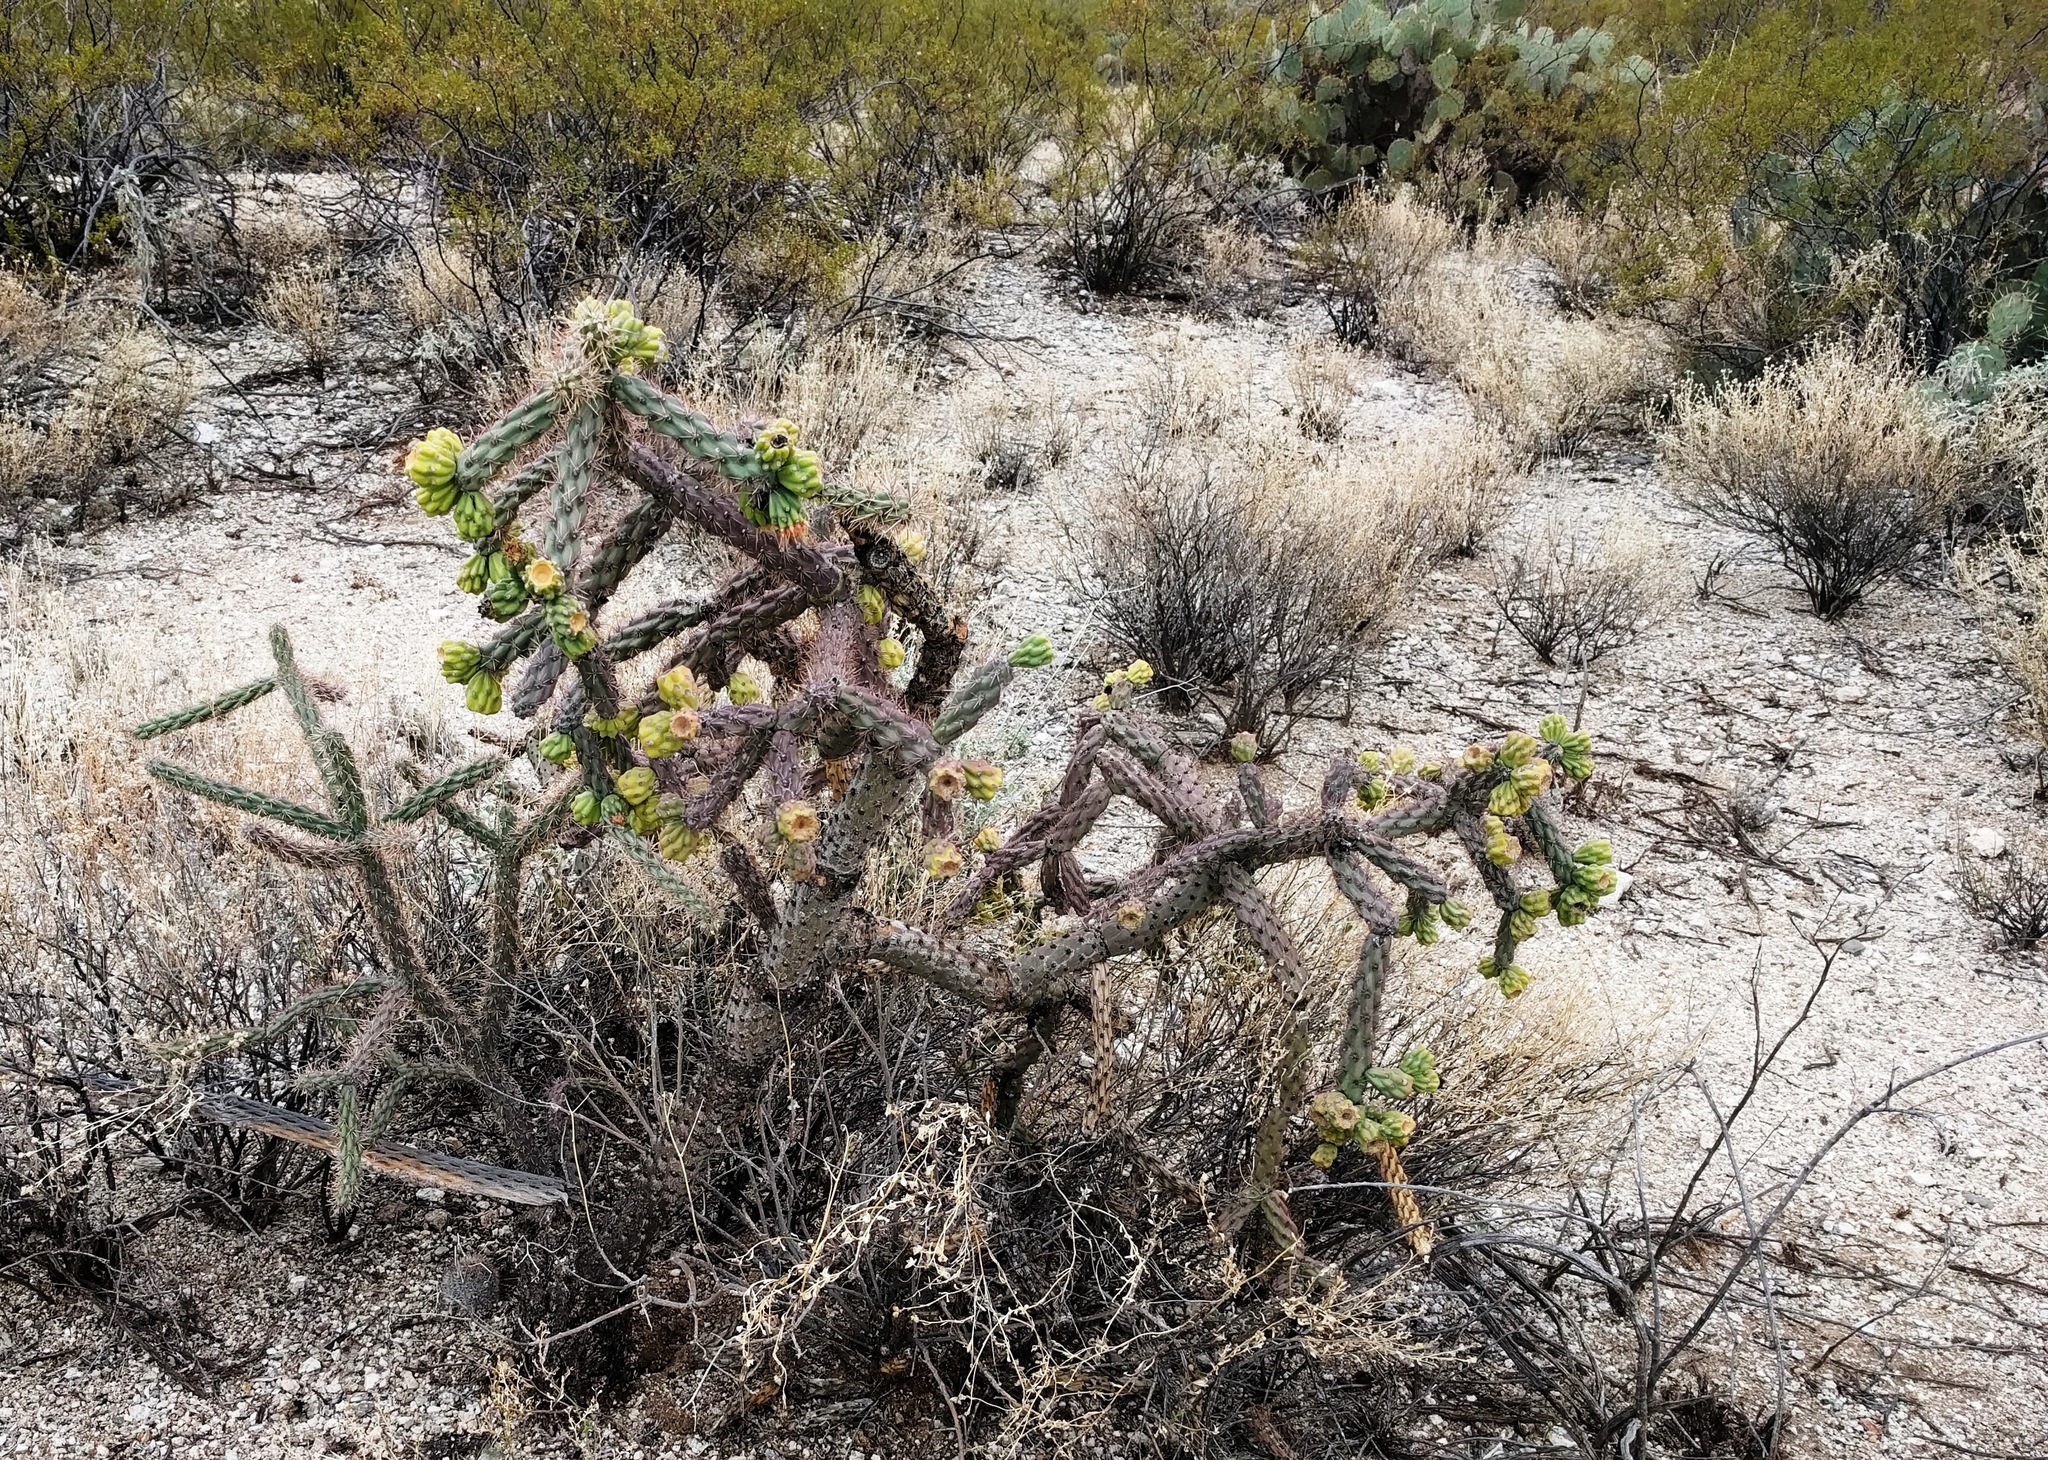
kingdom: Plantae
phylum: Tracheophyta
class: Magnoliopsida
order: Caryophyllales
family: Cactaceae
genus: Cylindropuntia
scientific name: Cylindropuntia thurberi
